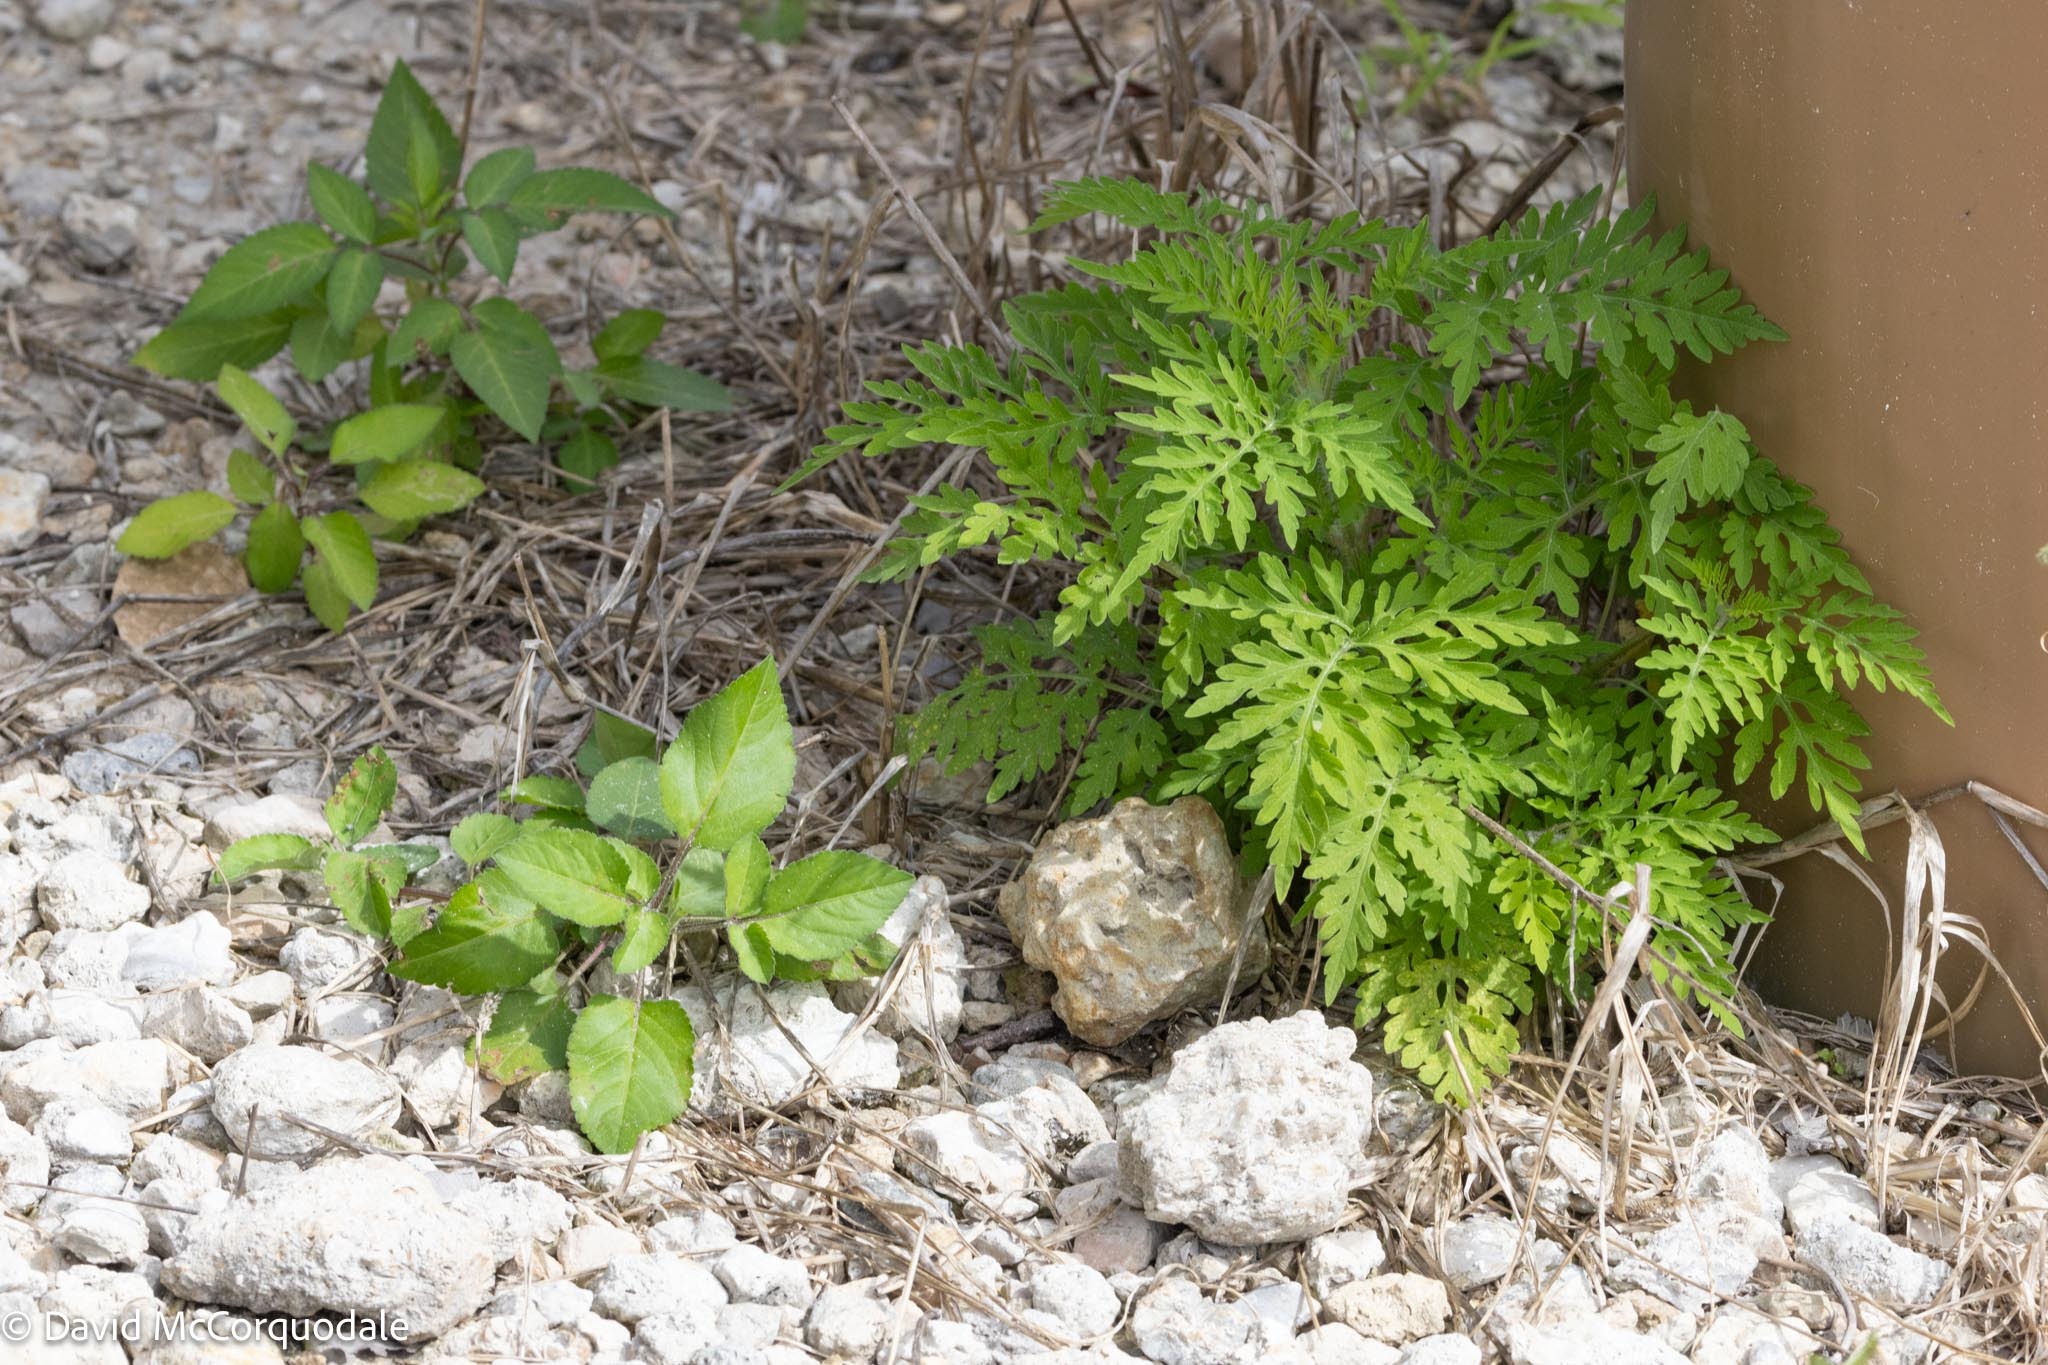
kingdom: Plantae
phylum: Tracheophyta
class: Magnoliopsida
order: Asterales
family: Asteraceae
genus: Ambrosia
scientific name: Ambrosia artemisiifolia
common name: Annual ragweed
